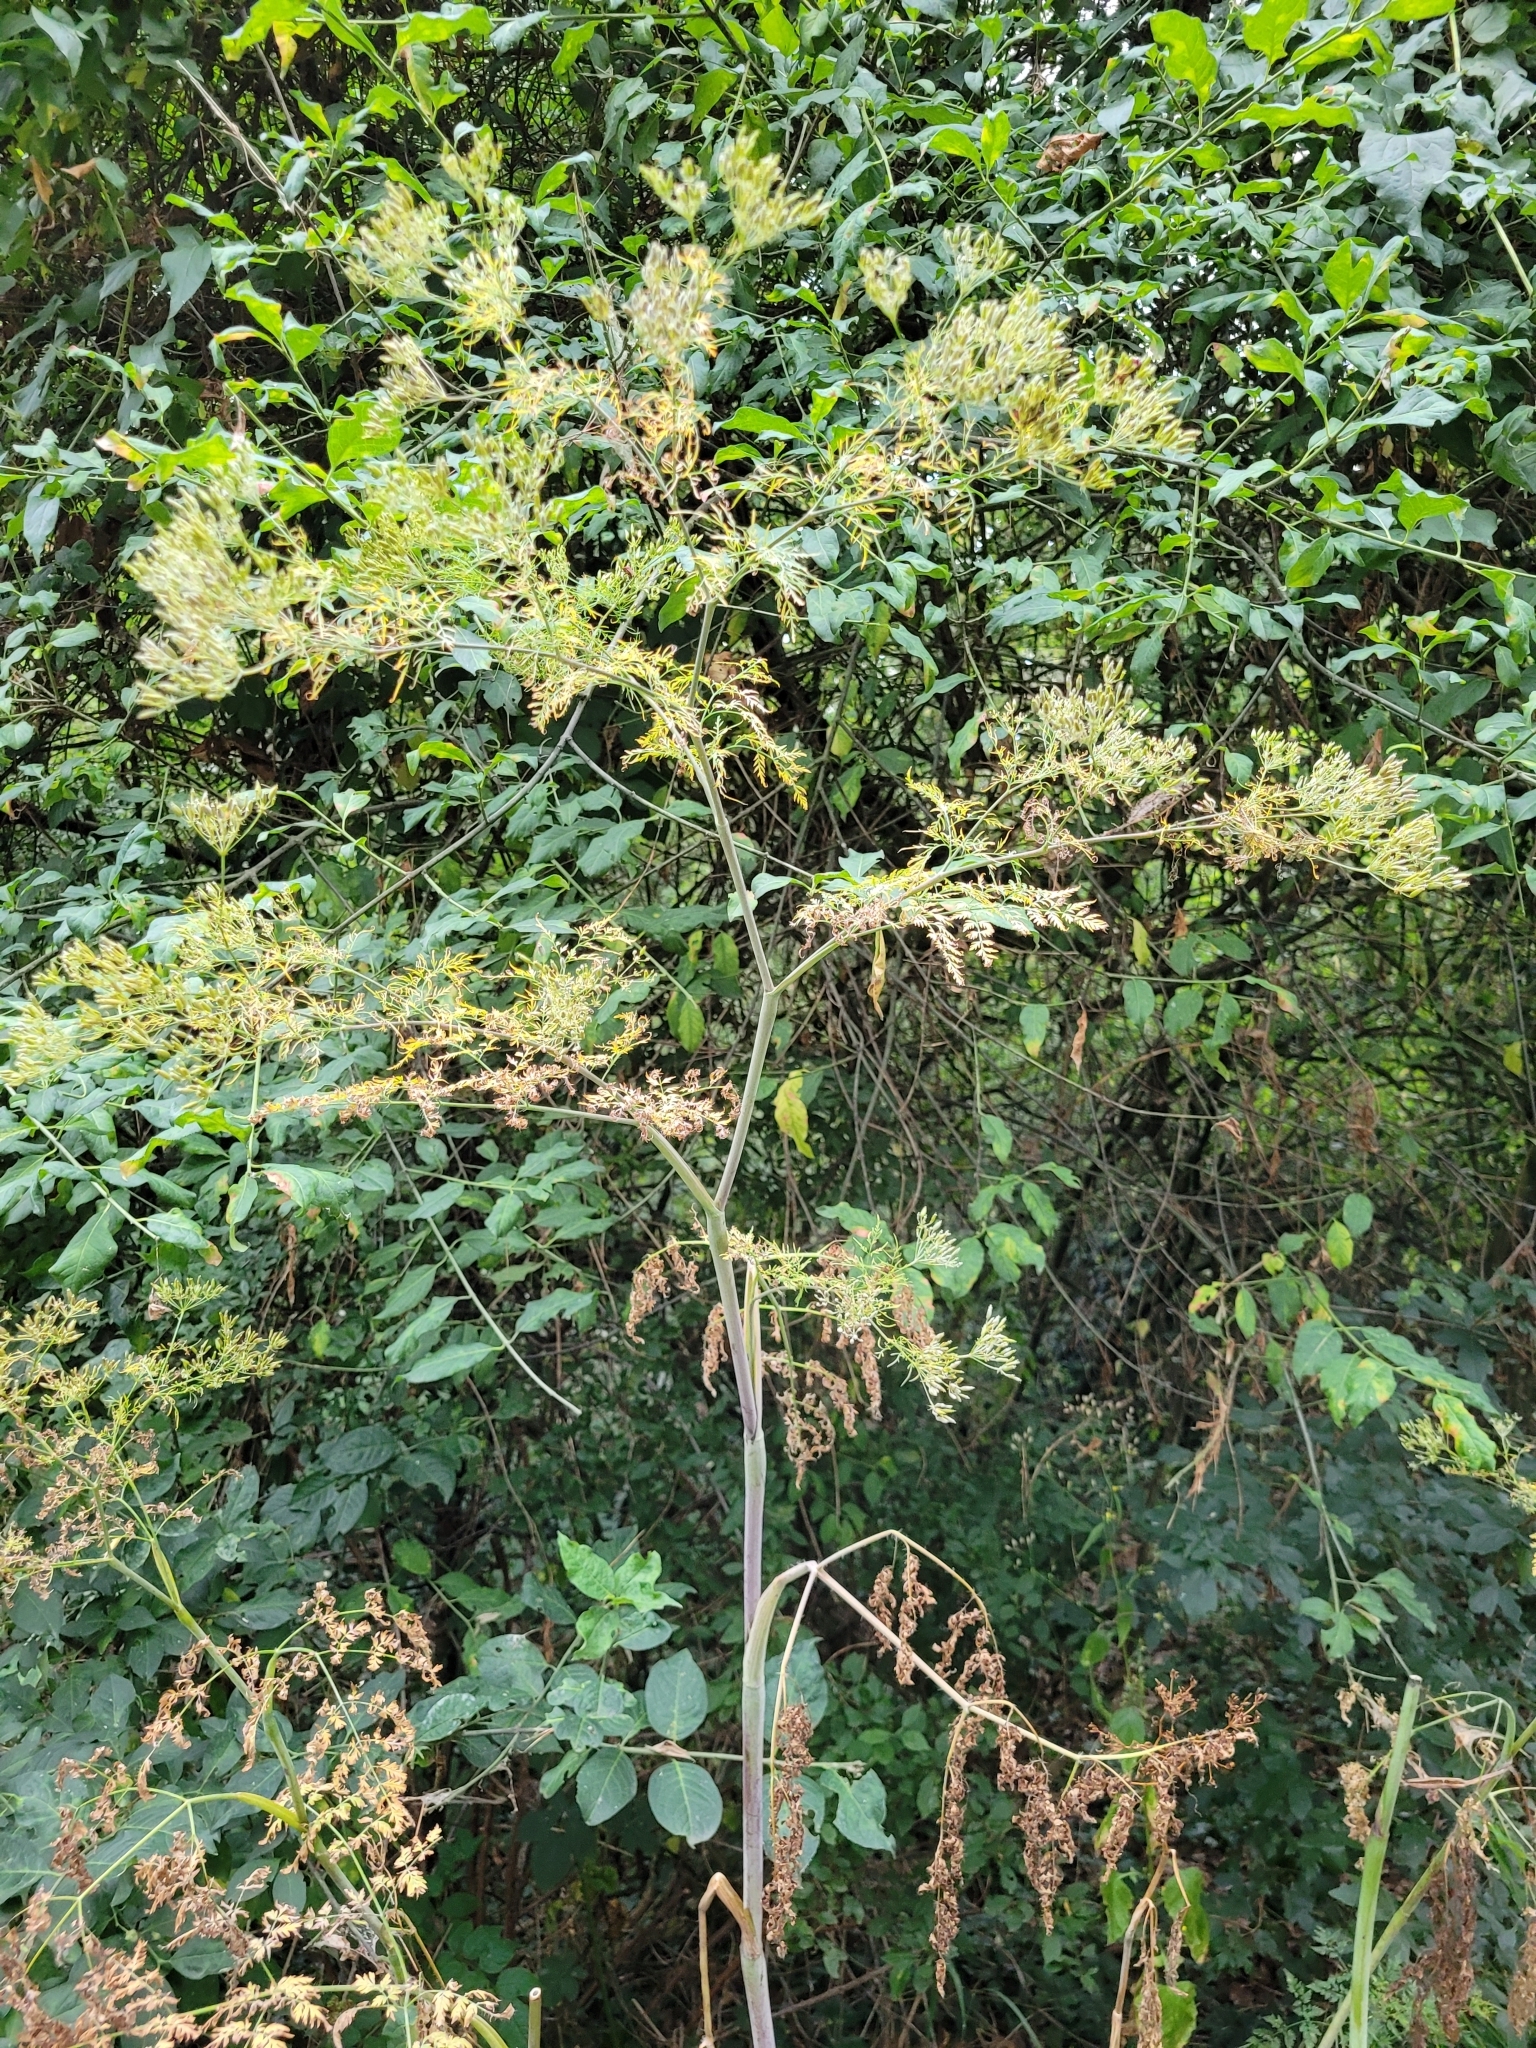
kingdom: Plantae
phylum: Tracheophyta
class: Magnoliopsida
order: Apiales
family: Apiaceae
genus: Chaerophyllum
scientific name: Chaerophyllum bulbosum
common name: Bulbous chervil
